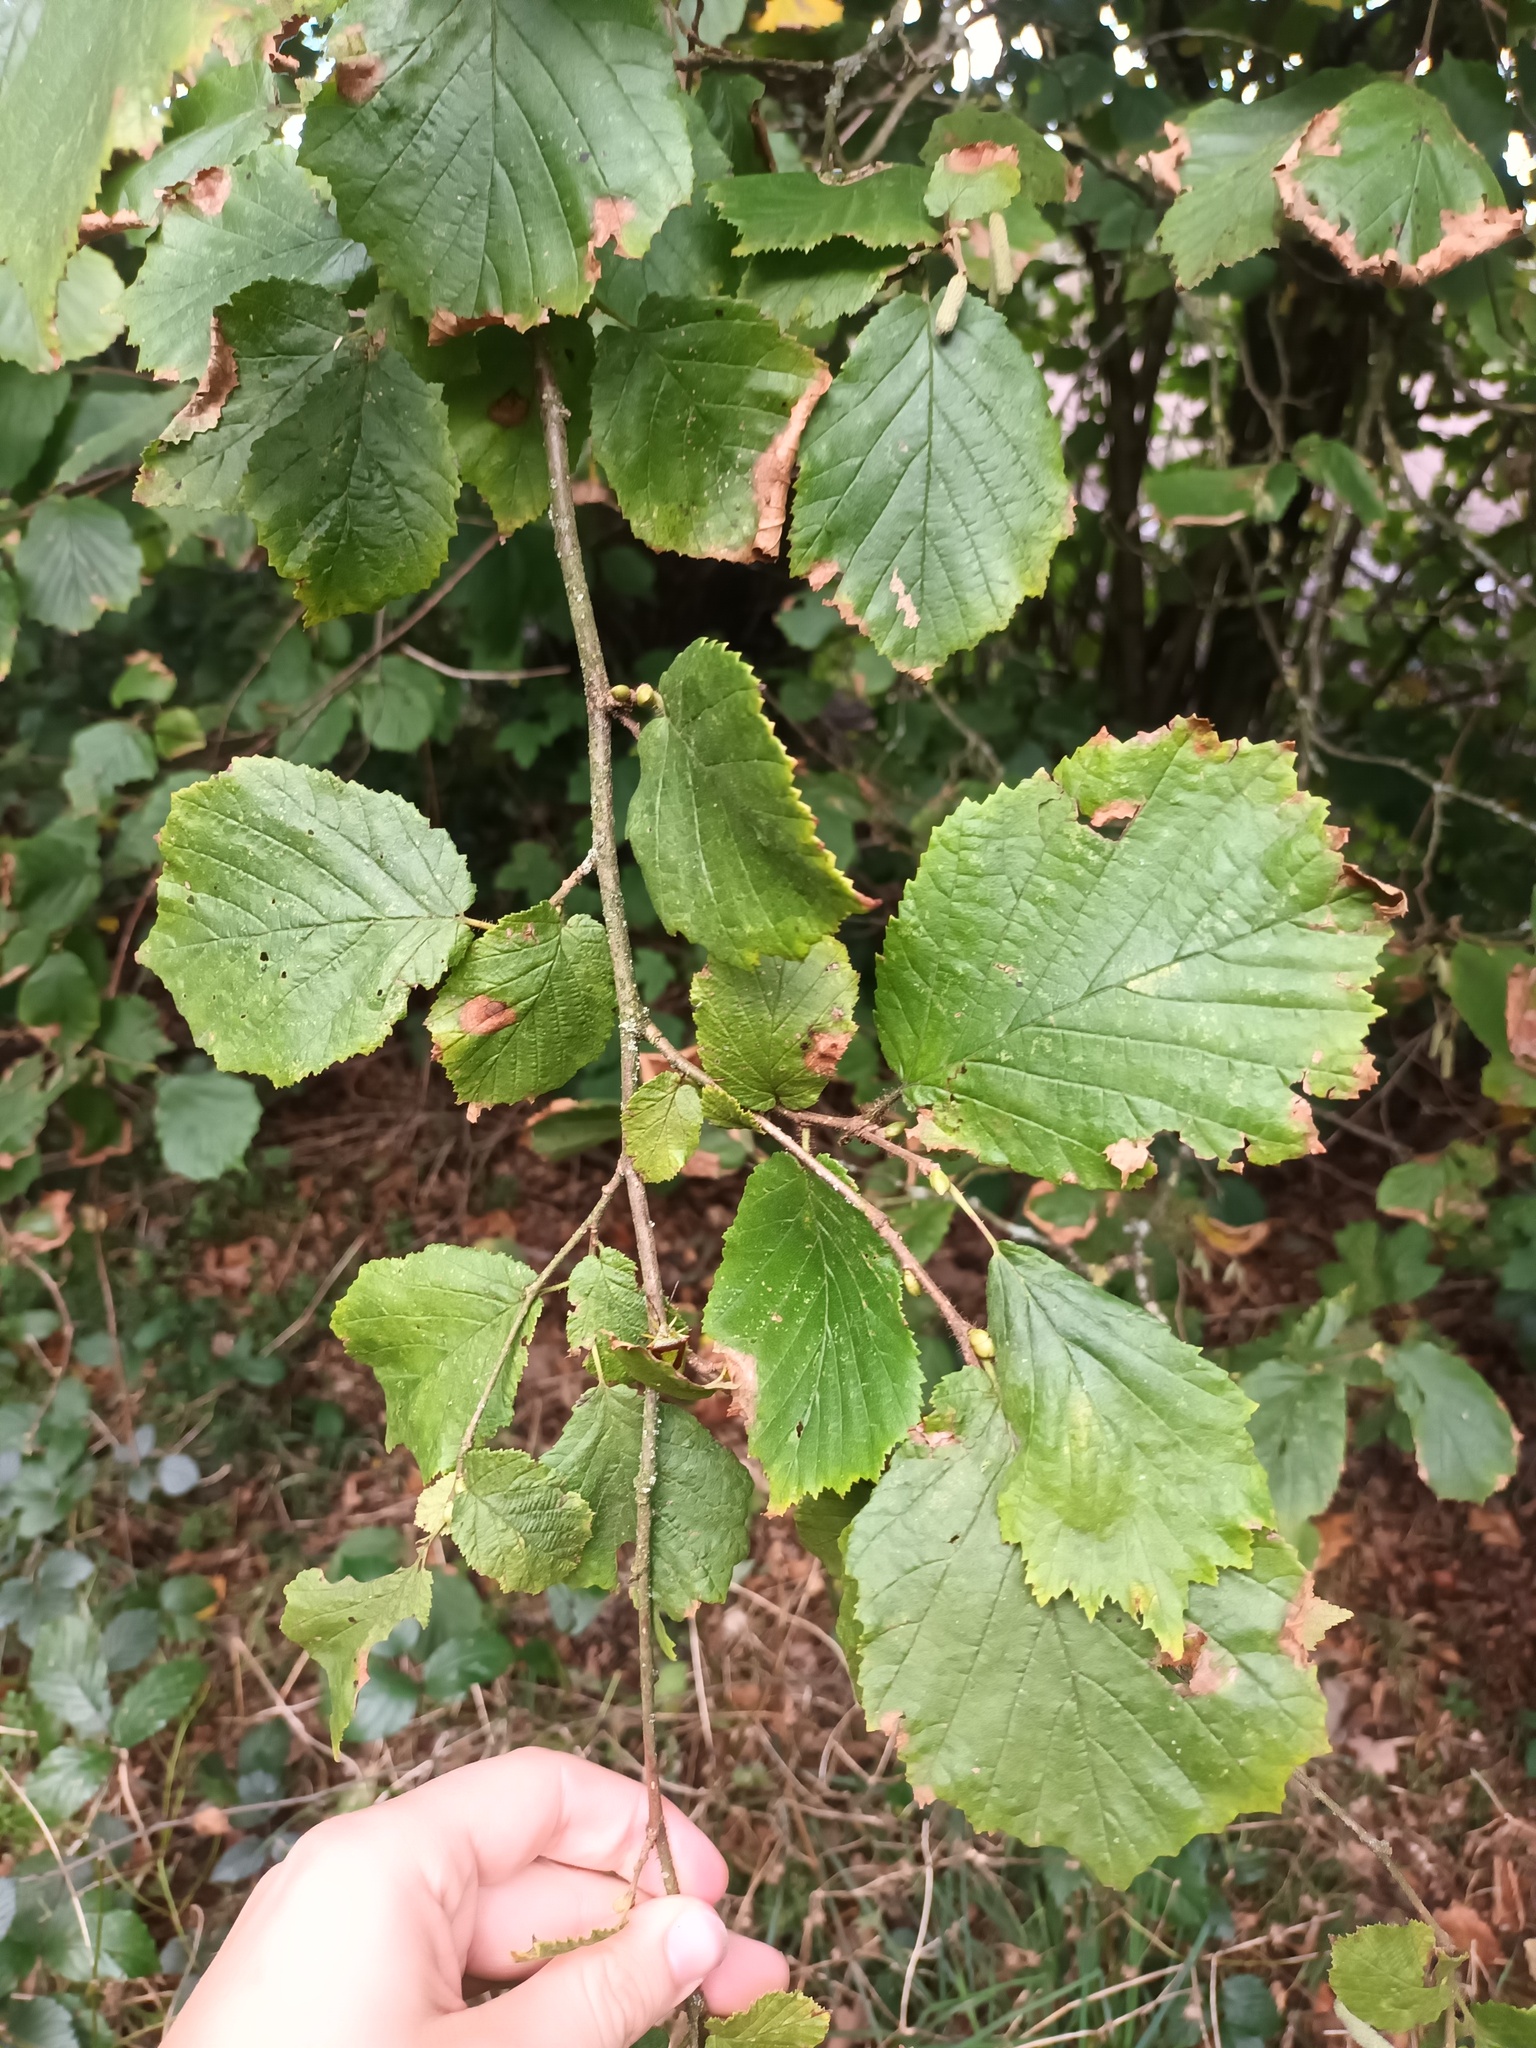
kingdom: Plantae
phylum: Tracheophyta
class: Magnoliopsida
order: Fagales
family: Betulaceae
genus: Corylus
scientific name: Corylus avellana
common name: European hazel
